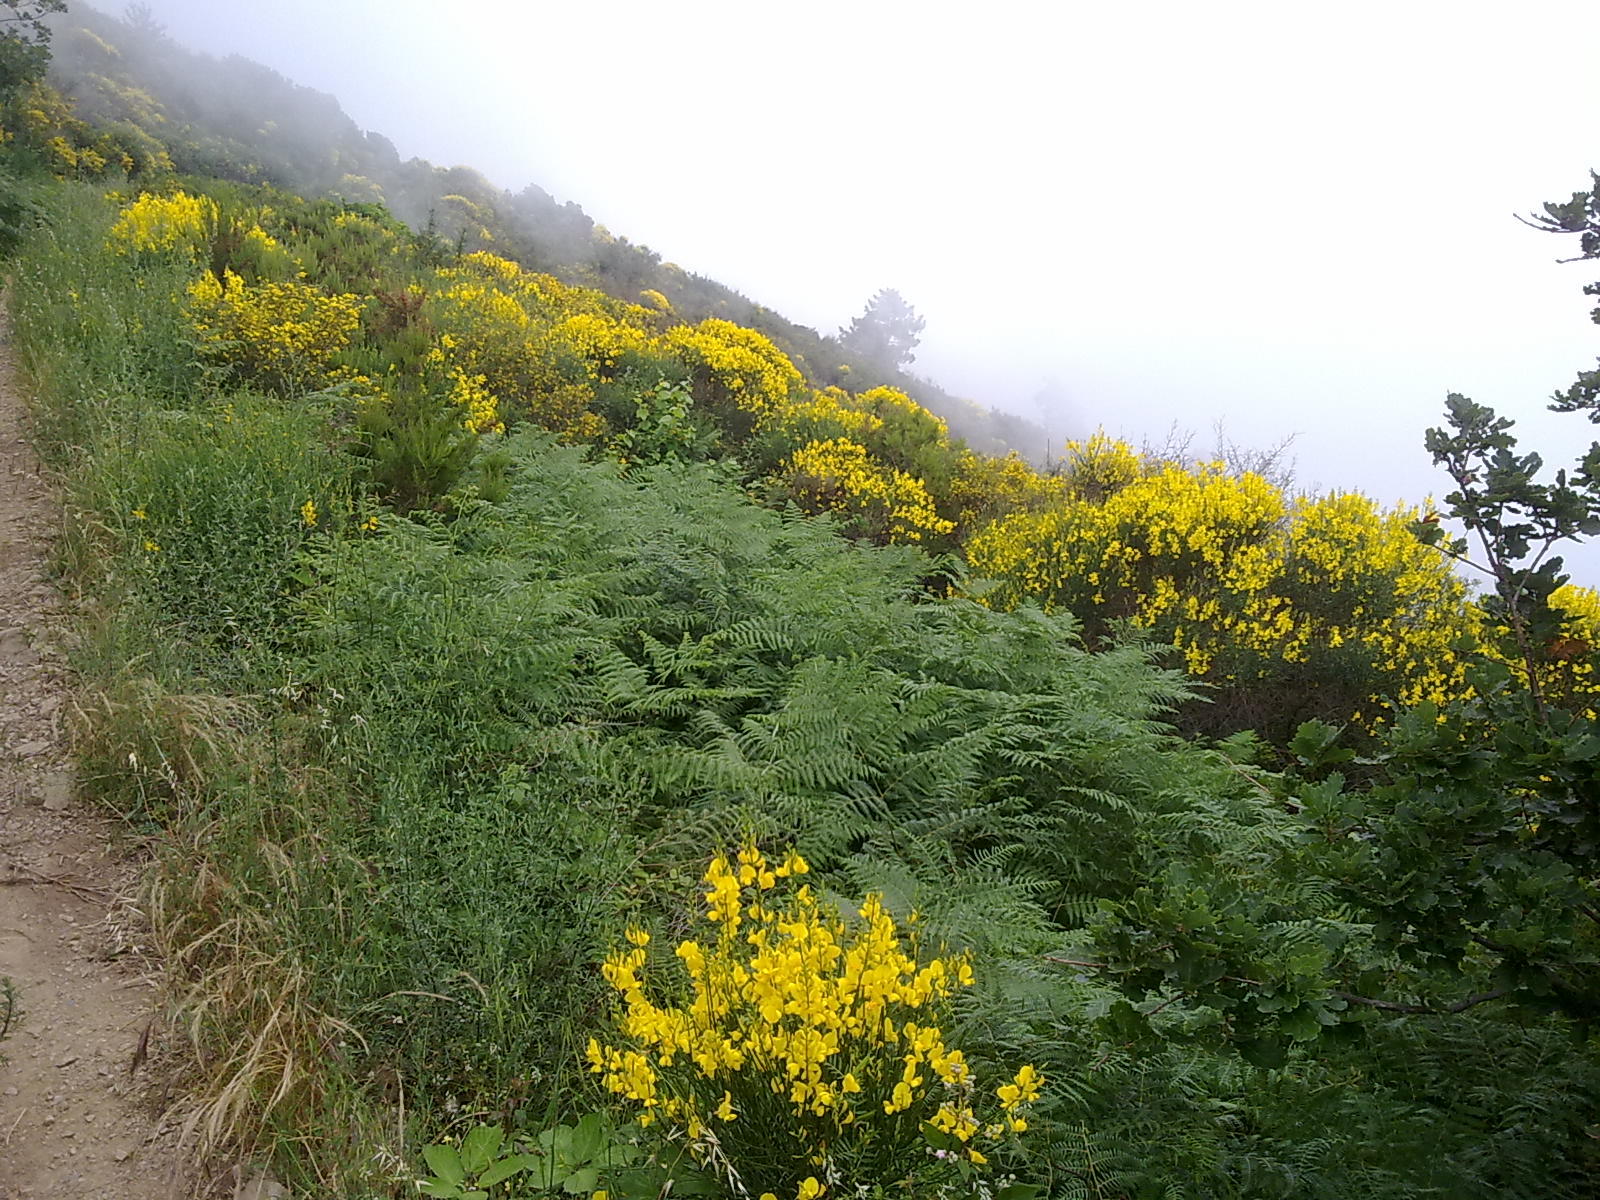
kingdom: Plantae
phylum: Tracheophyta
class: Magnoliopsida
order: Fabales
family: Fabaceae
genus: Spartium
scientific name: Spartium junceum
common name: Spanish broom
